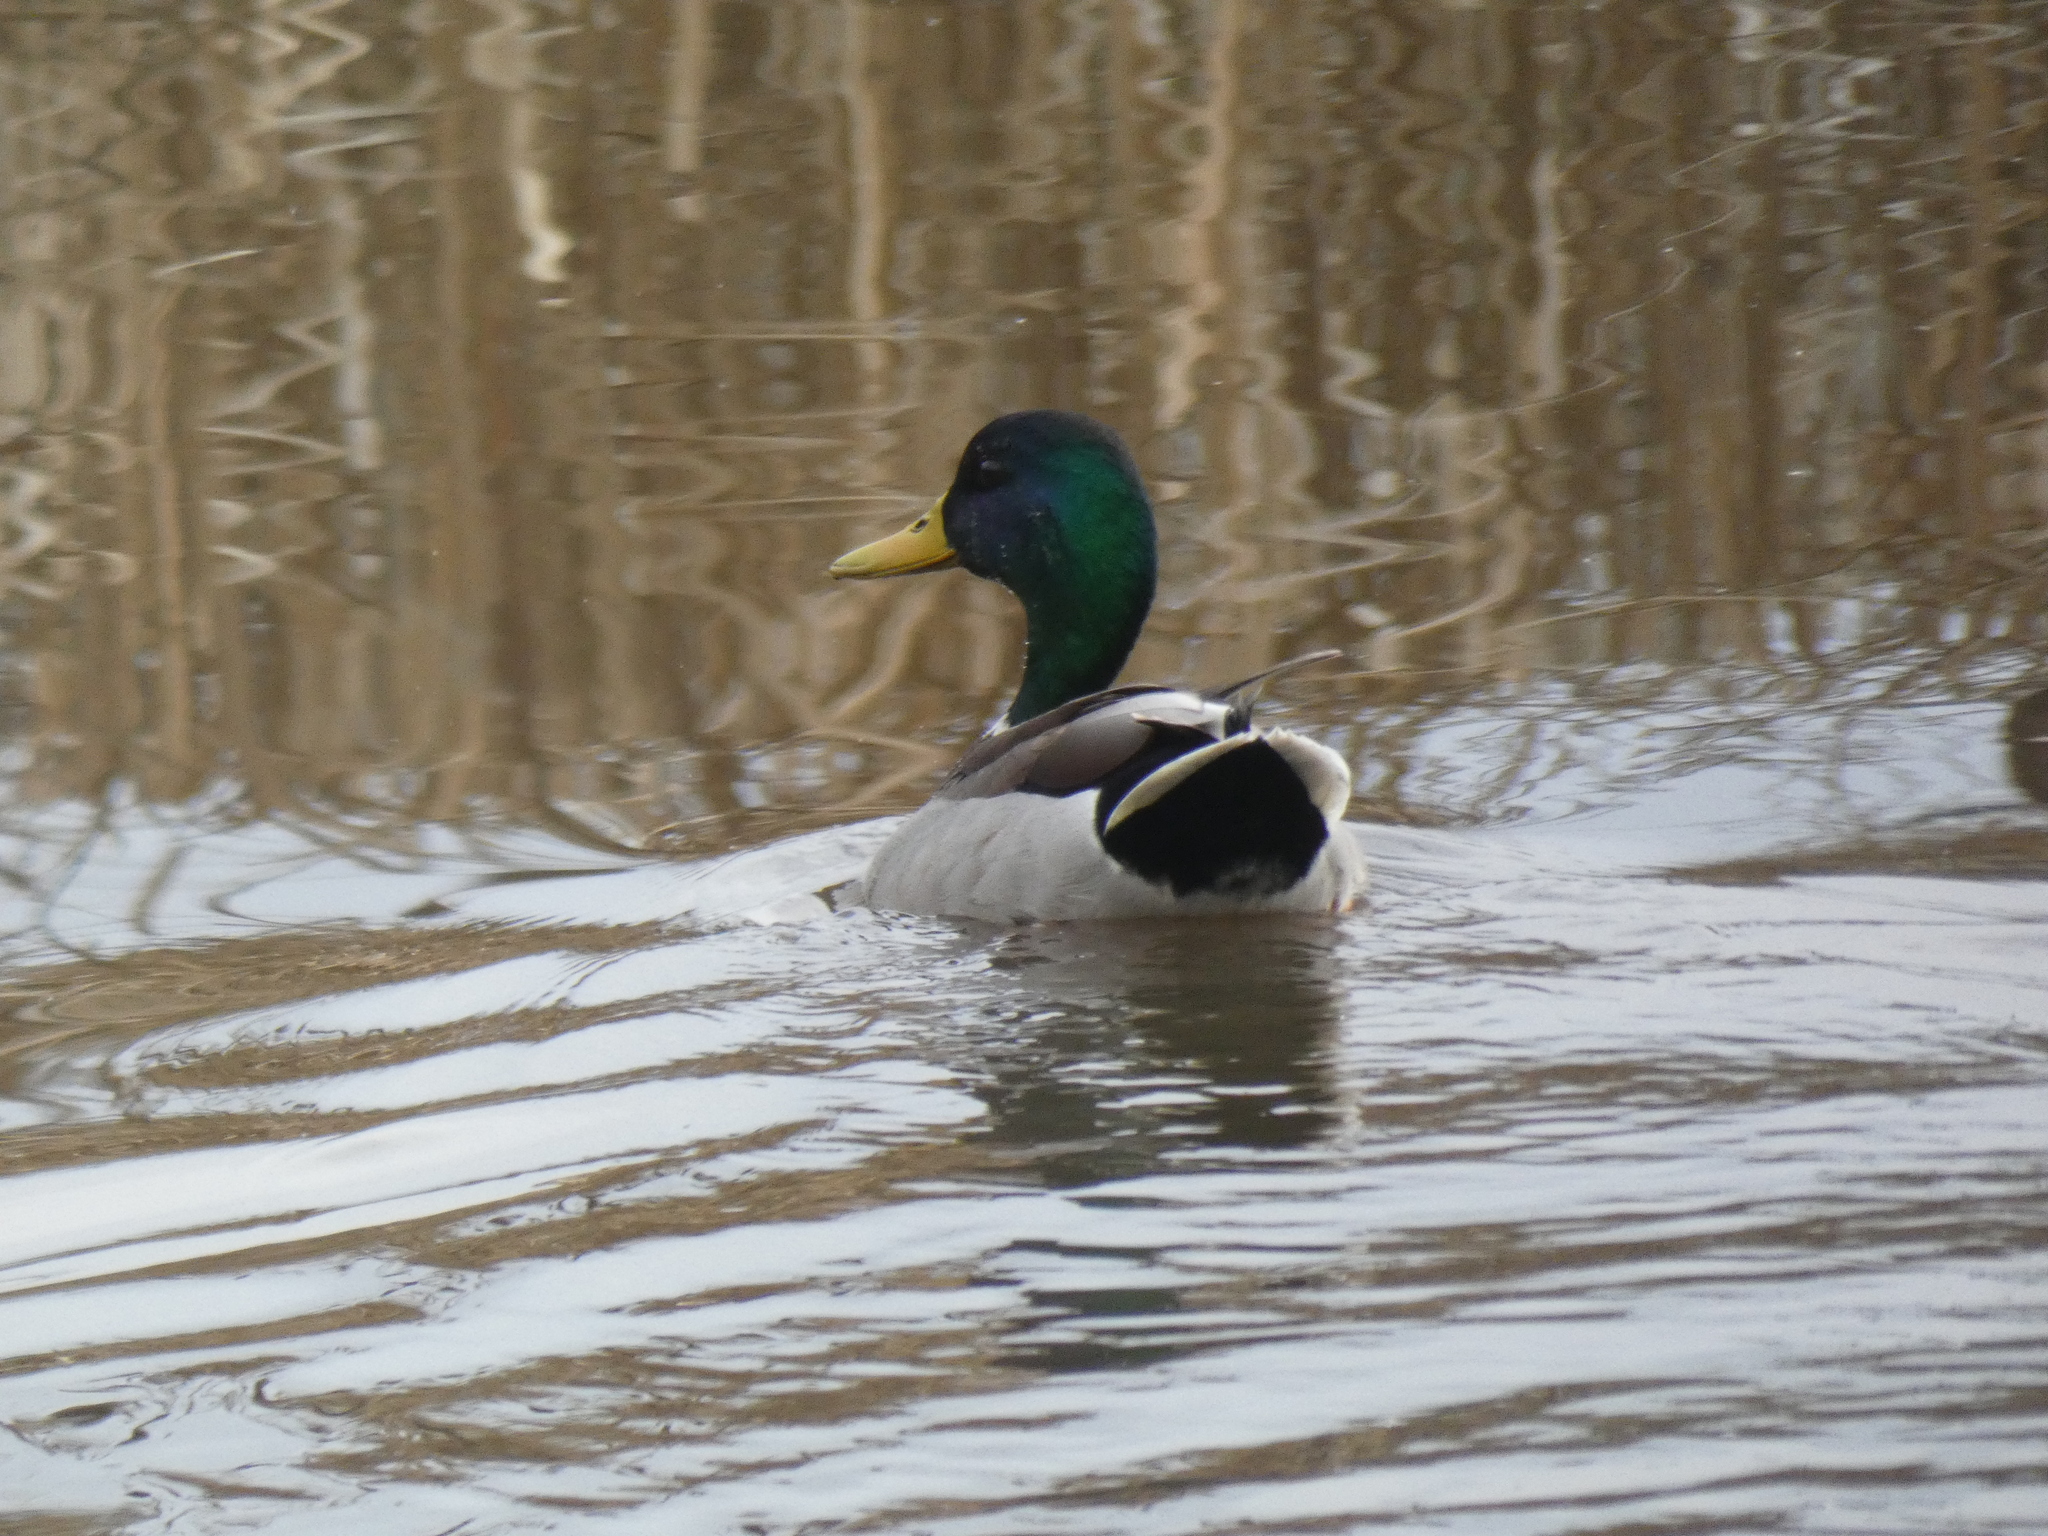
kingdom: Animalia
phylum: Chordata
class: Aves
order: Anseriformes
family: Anatidae
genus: Anas
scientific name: Anas platyrhynchos
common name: Mallard
